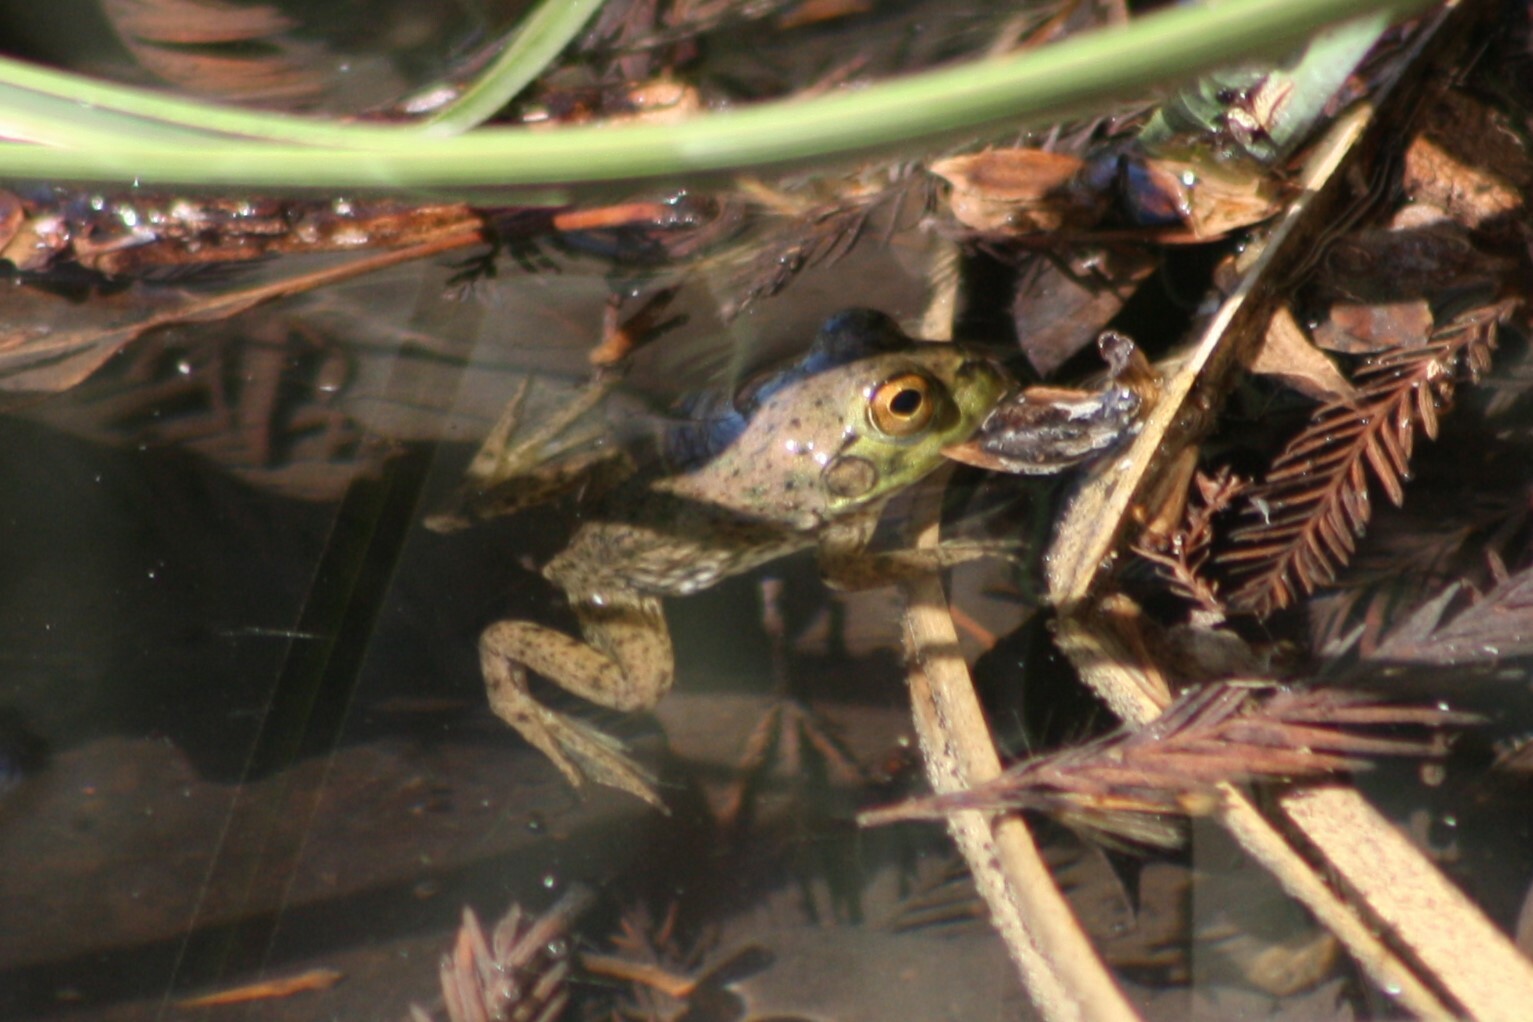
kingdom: Animalia
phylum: Chordata
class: Amphibia
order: Anura
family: Ranidae
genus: Lithobates
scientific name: Lithobates catesbeianus
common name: American bullfrog
